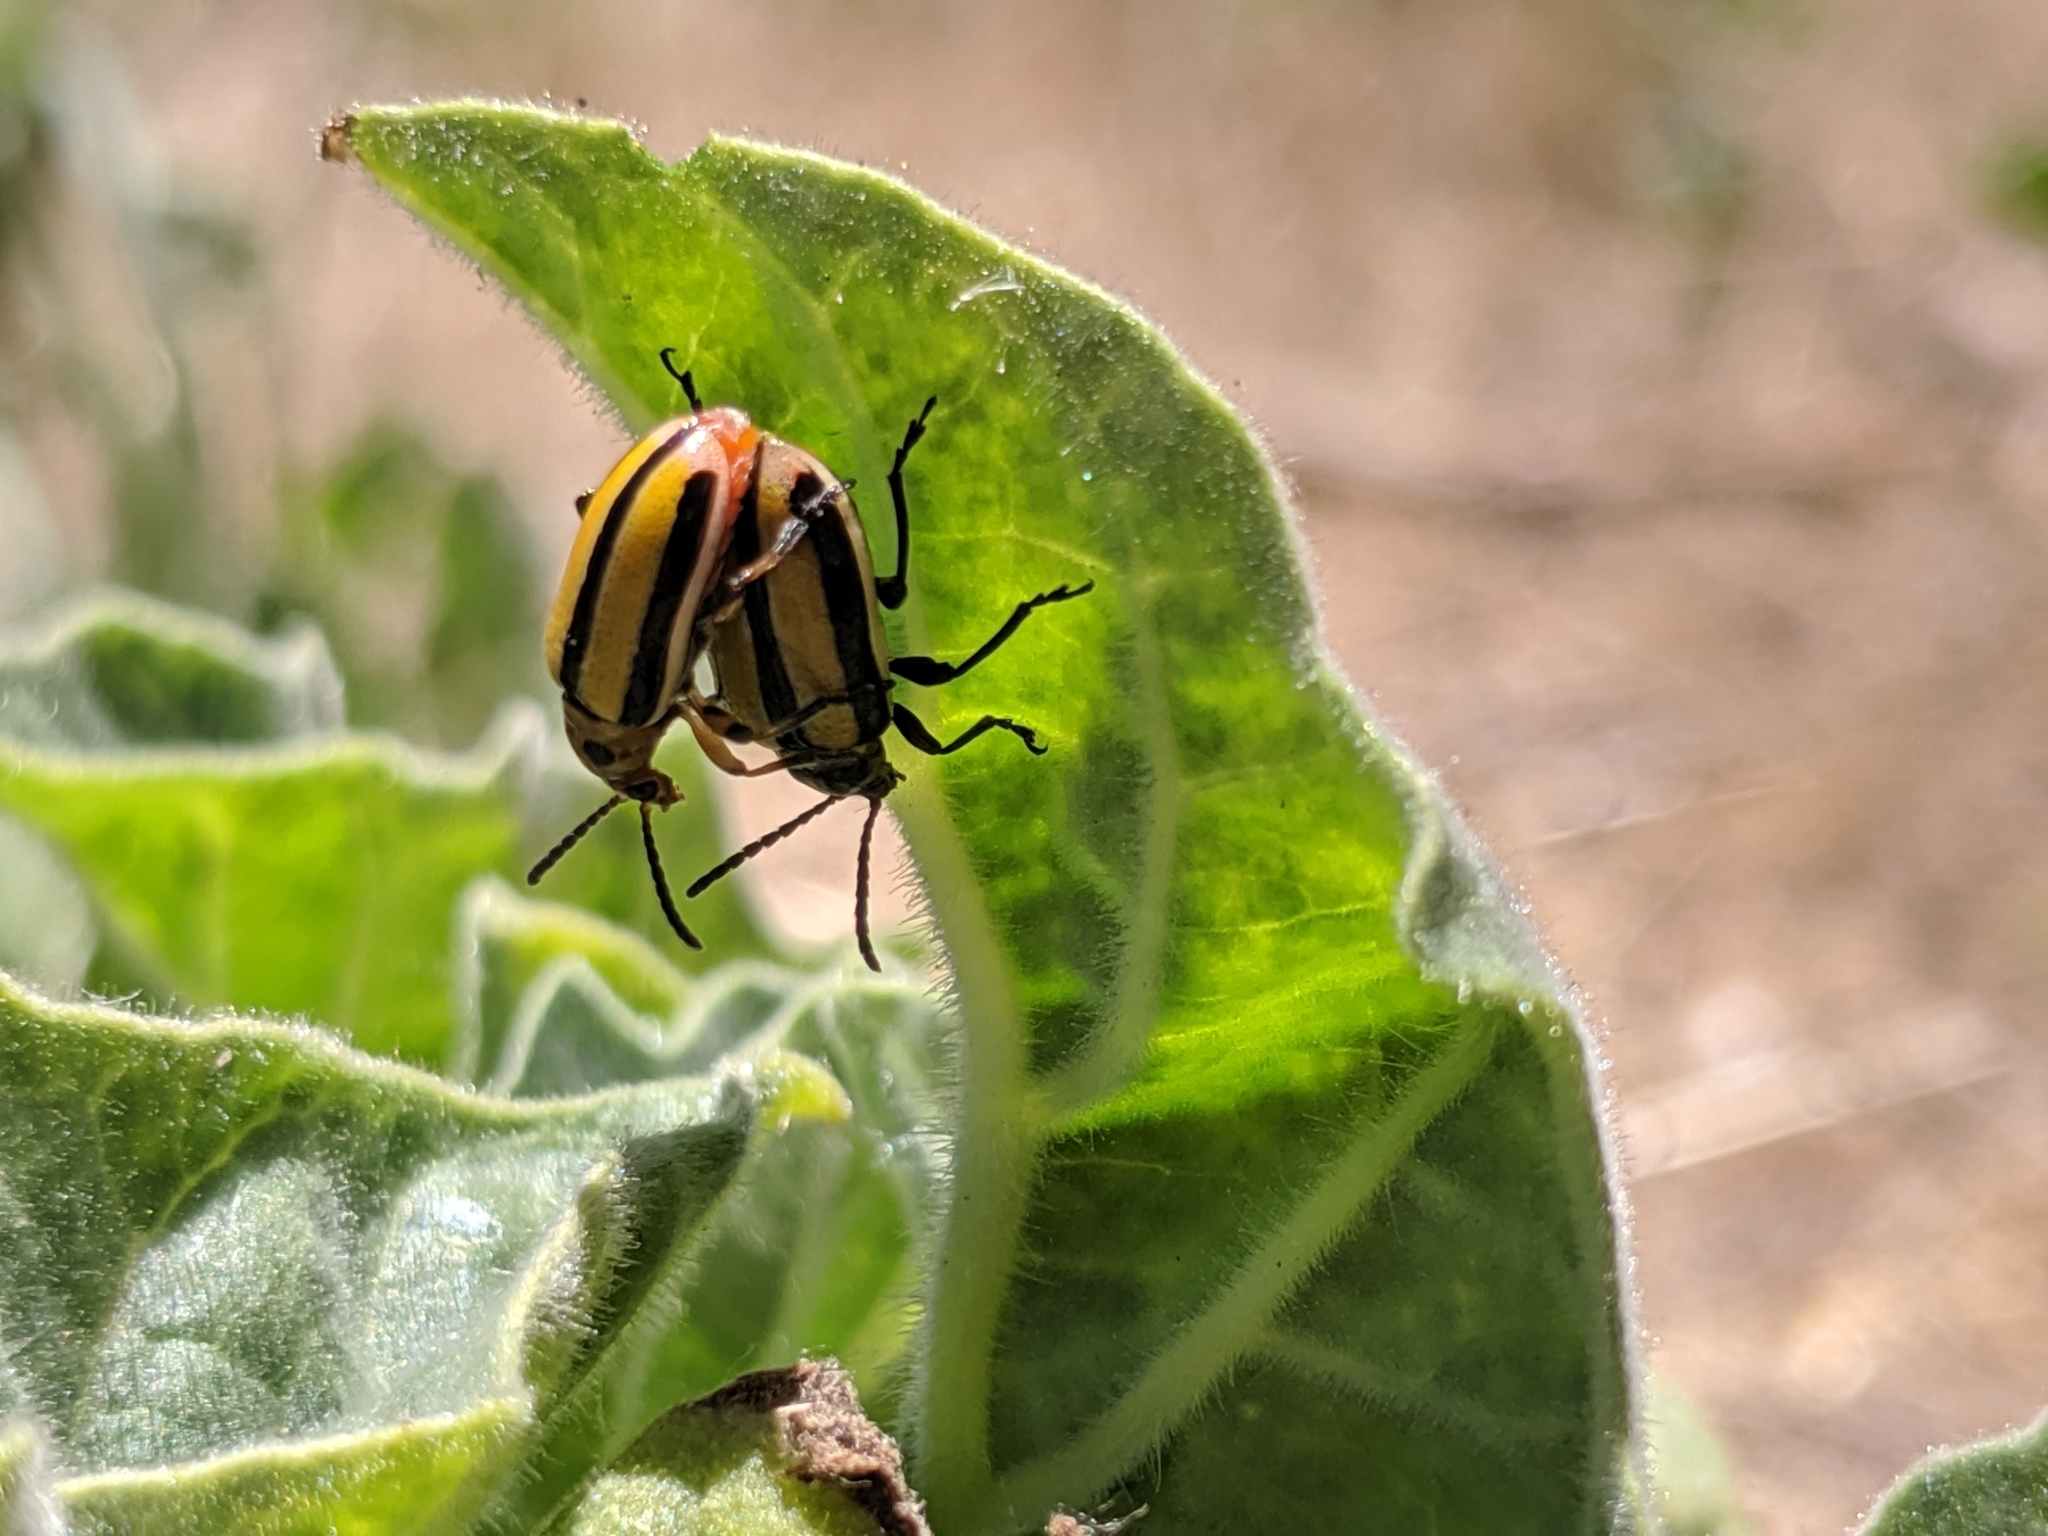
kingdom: Animalia
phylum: Arthropoda
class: Insecta
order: Coleoptera
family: Chrysomelidae
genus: Lema
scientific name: Lema daturaphila
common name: Leaf beetle
